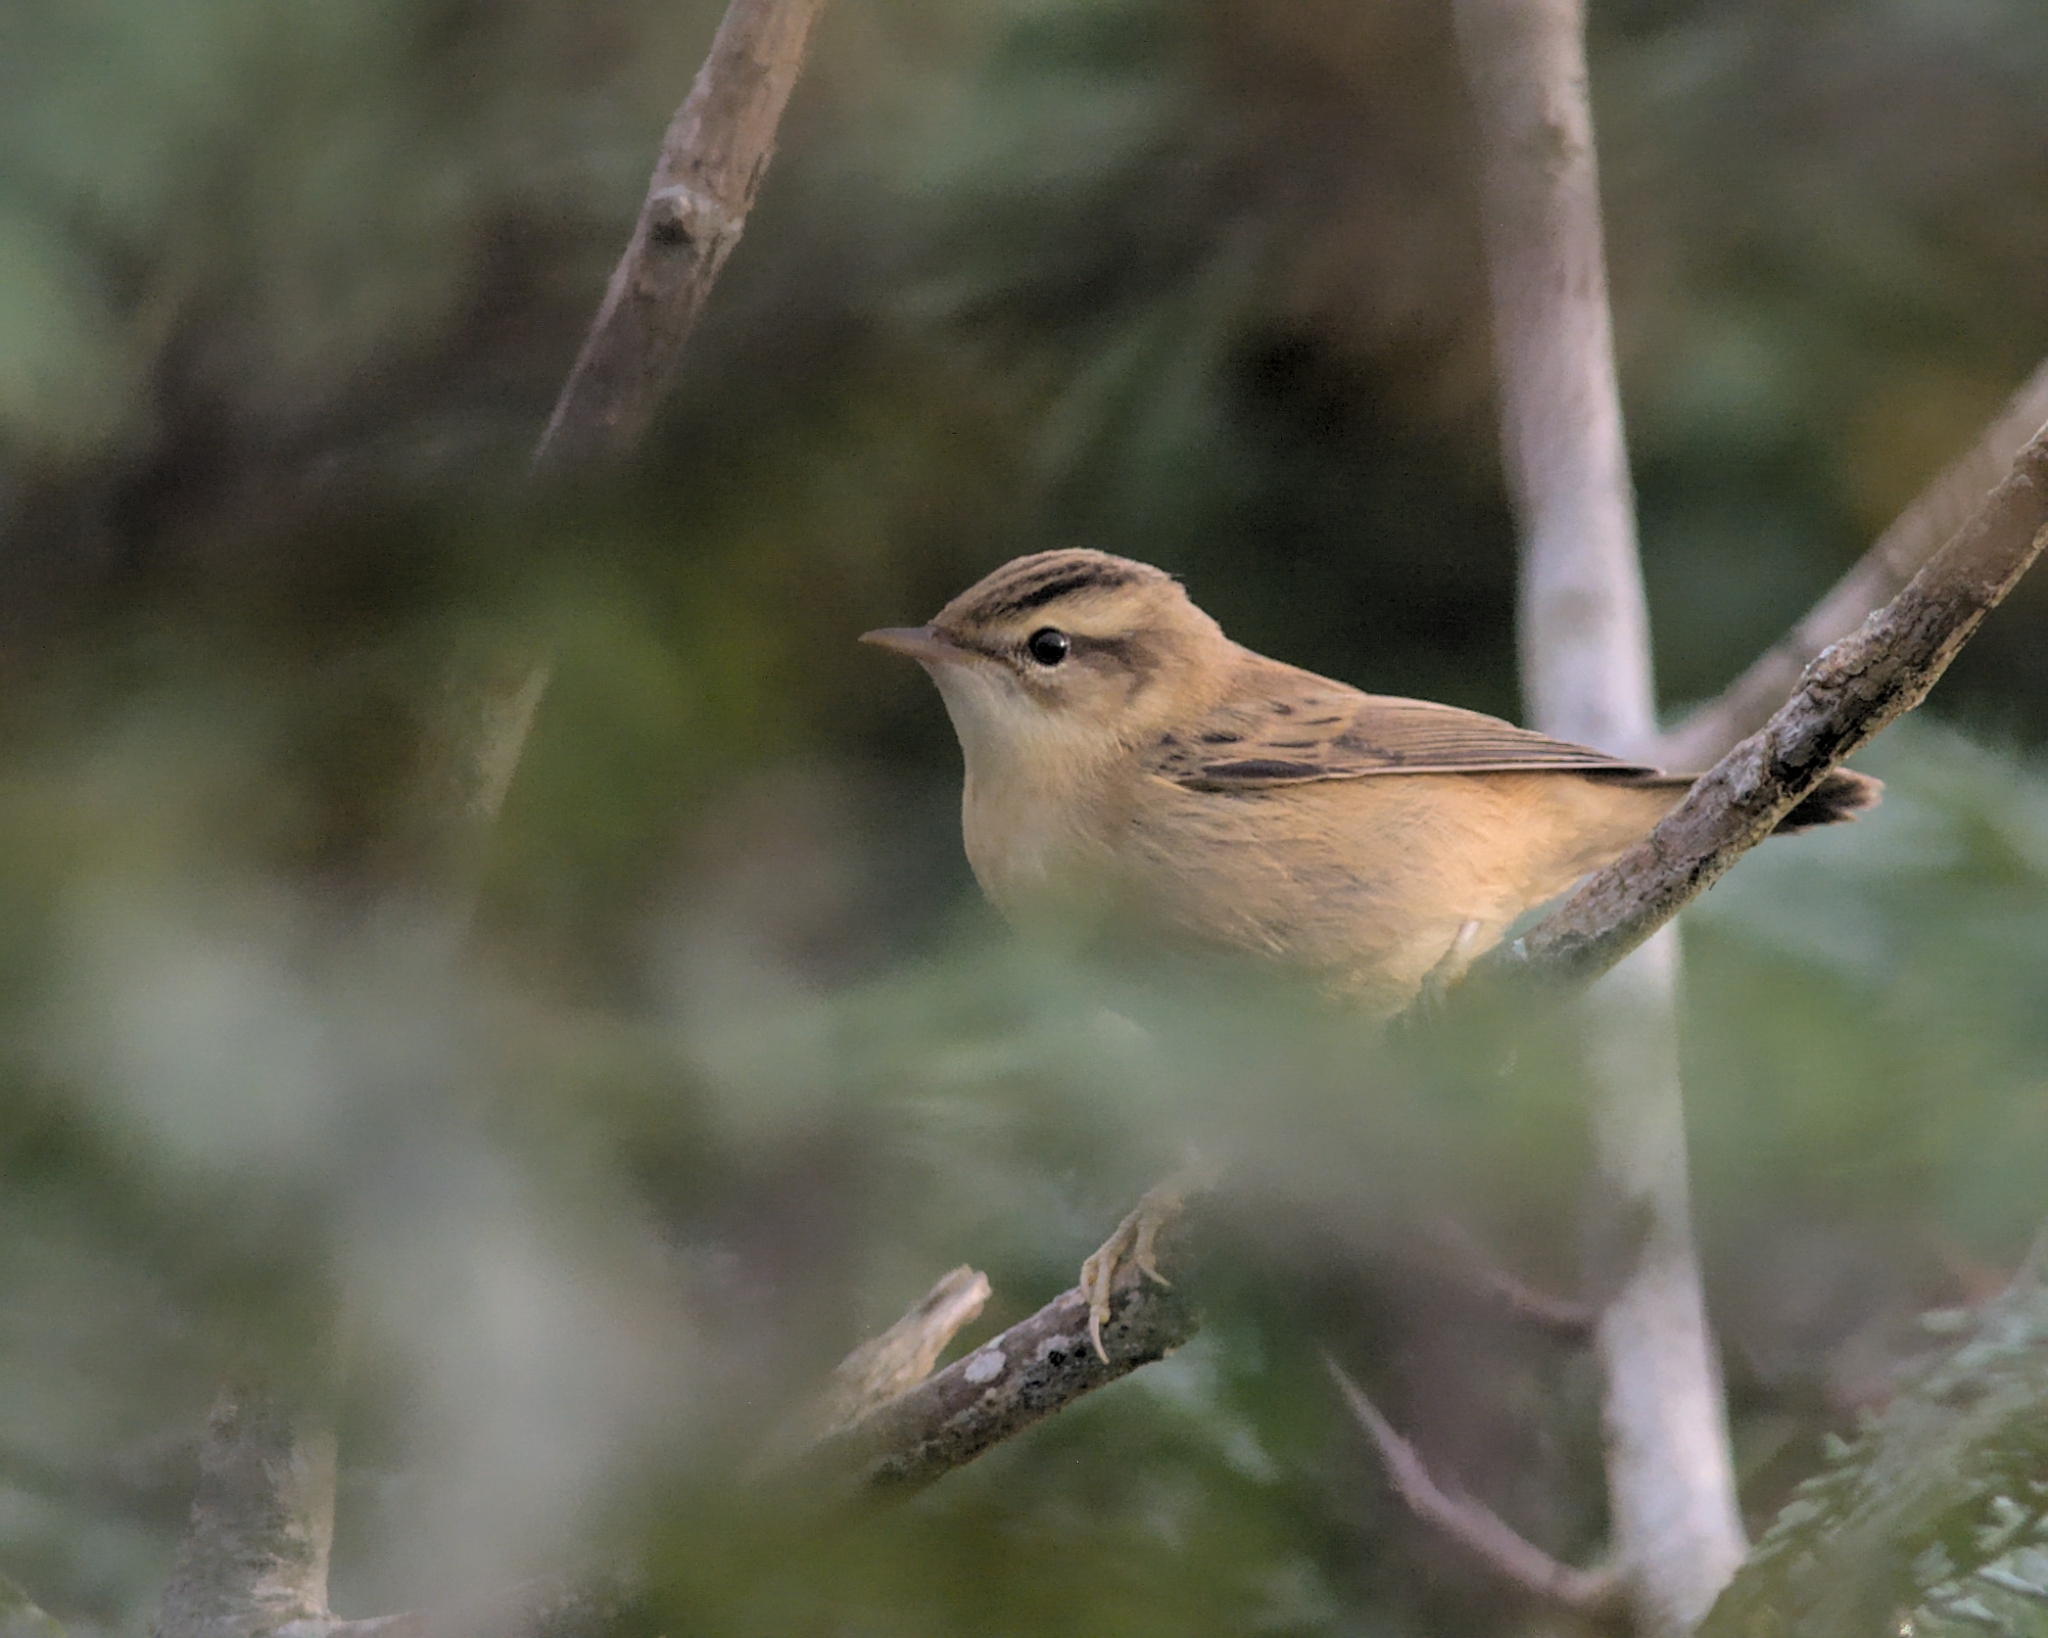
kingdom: Animalia
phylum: Chordata
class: Aves
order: Passeriformes
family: Acrocephalidae
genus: Acrocephalus
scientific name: Acrocephalus schoenobaenus
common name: Sedge warbler
